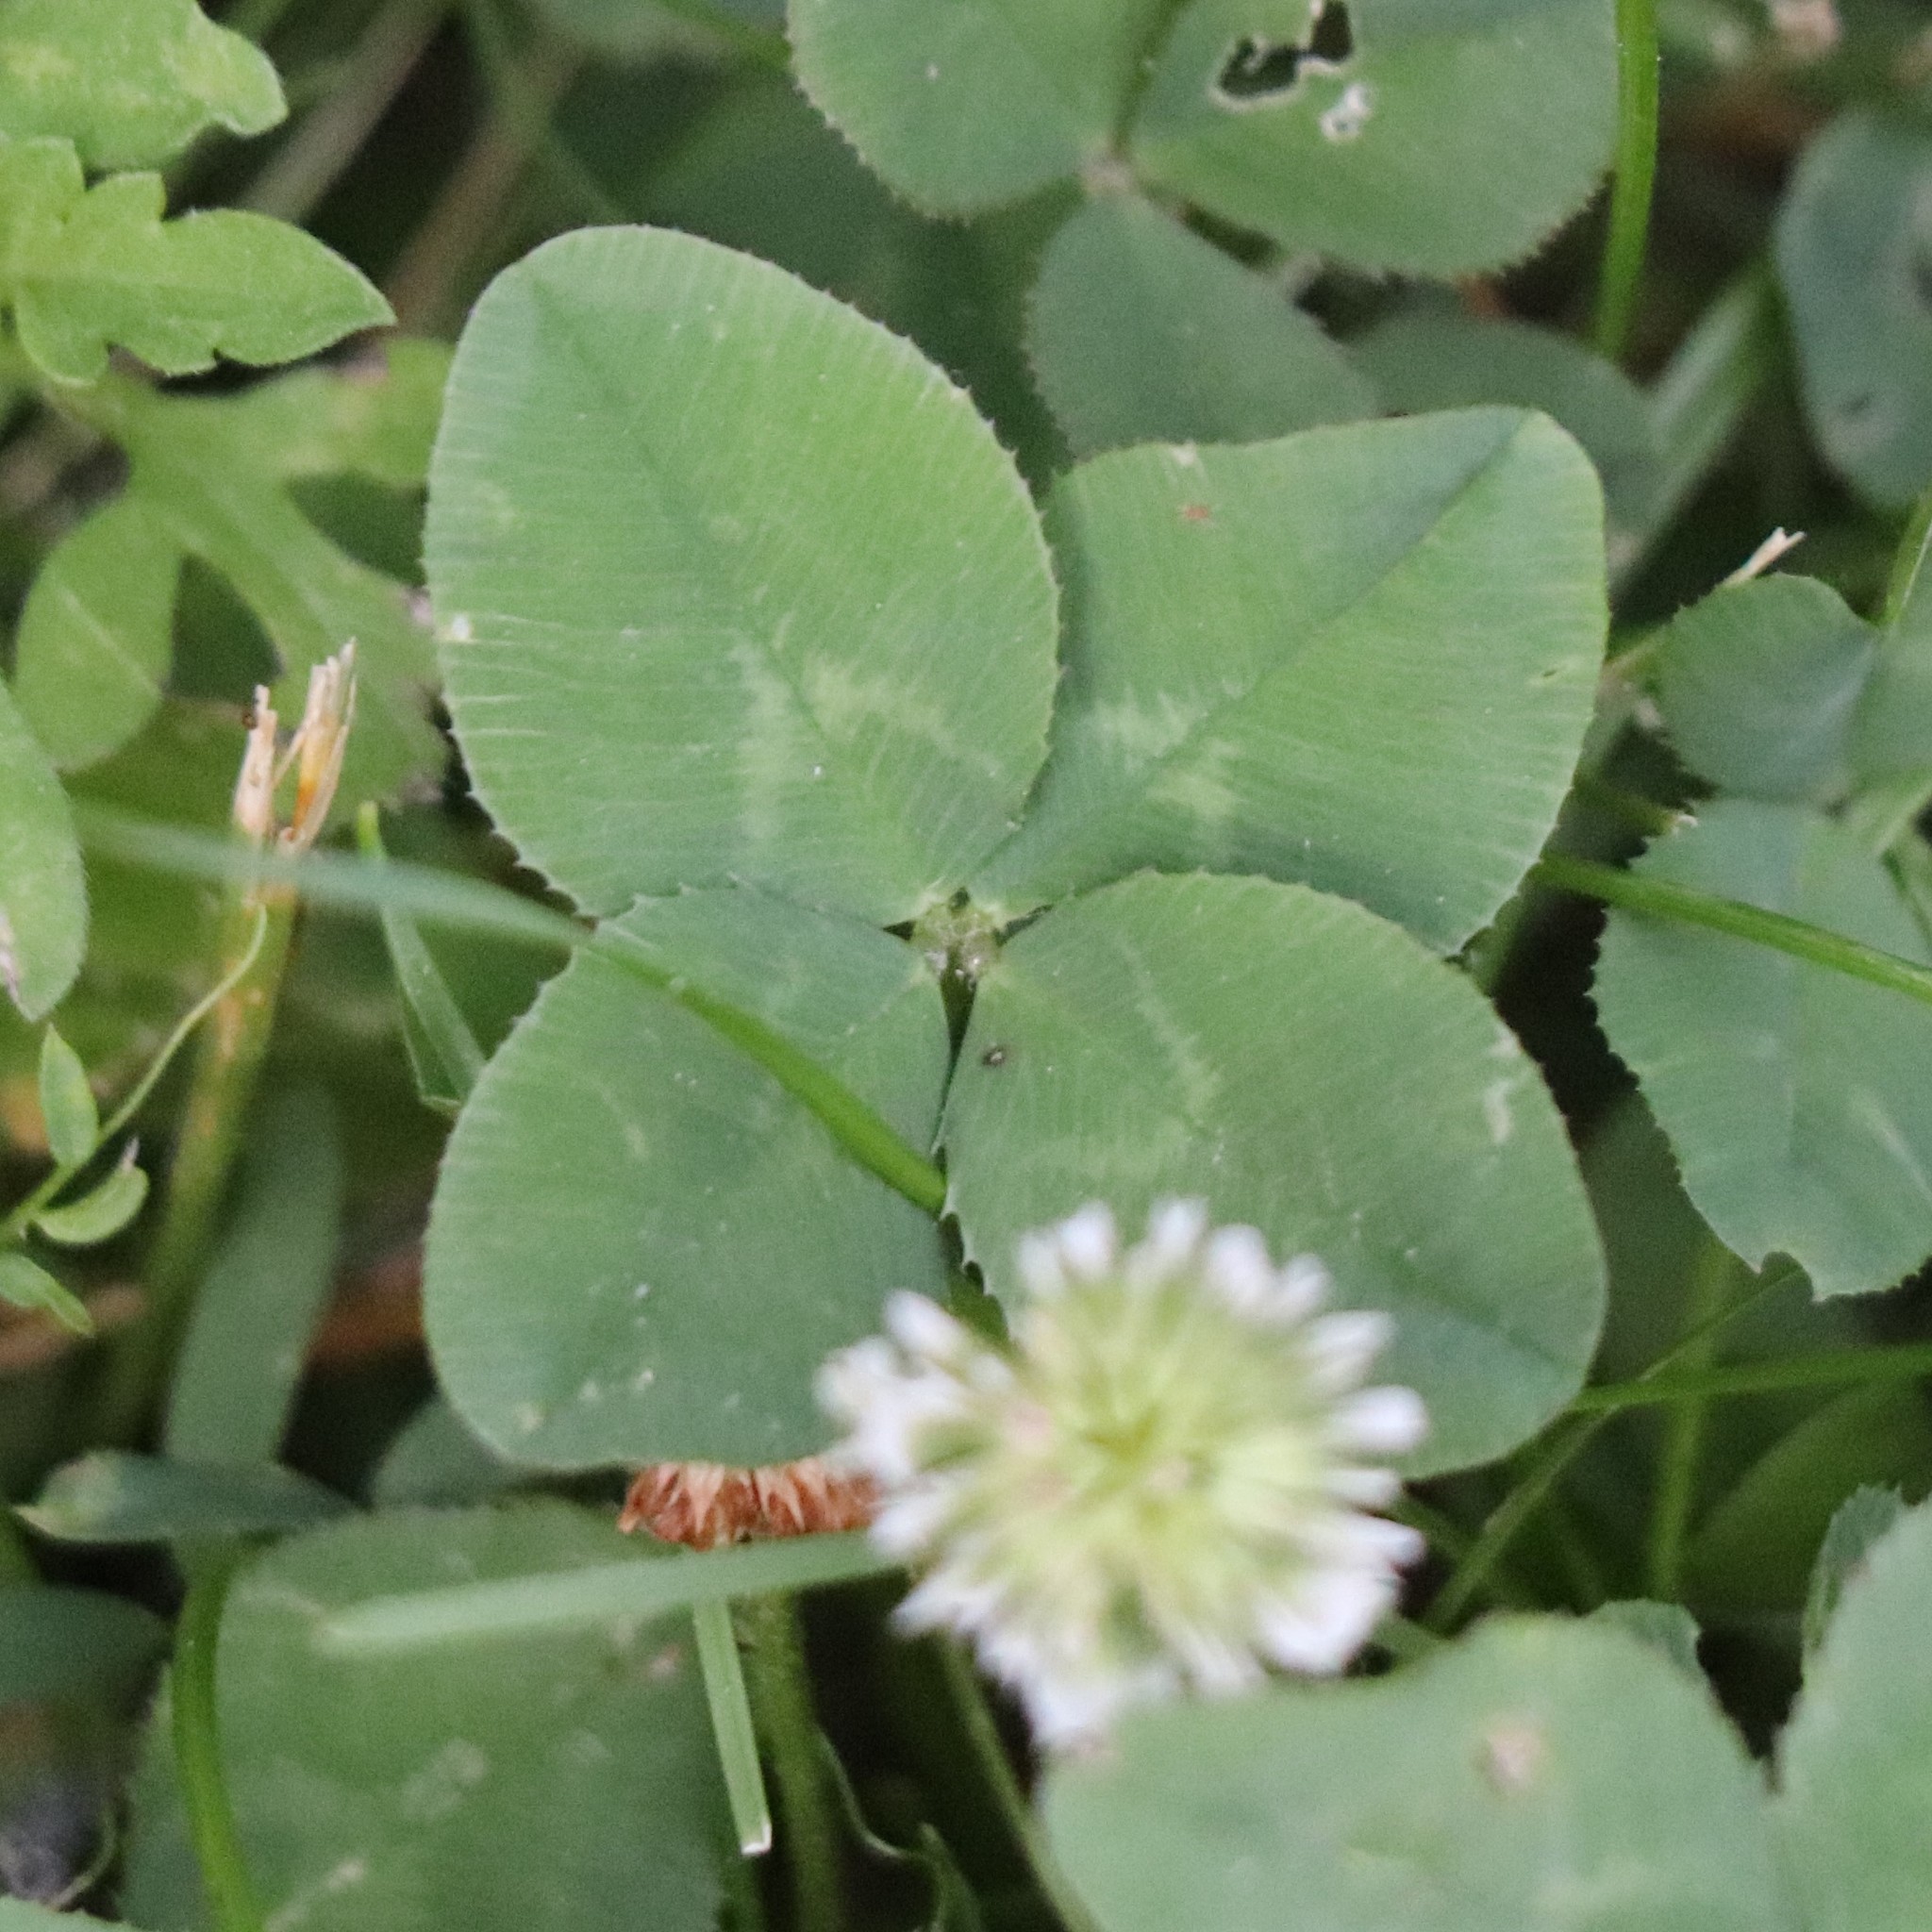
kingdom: Plantae
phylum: Tracheophyta
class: Magnoliopsida
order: Fabales
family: Fabaceae
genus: Trifolium
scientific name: Trifolium repens
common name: White clover
